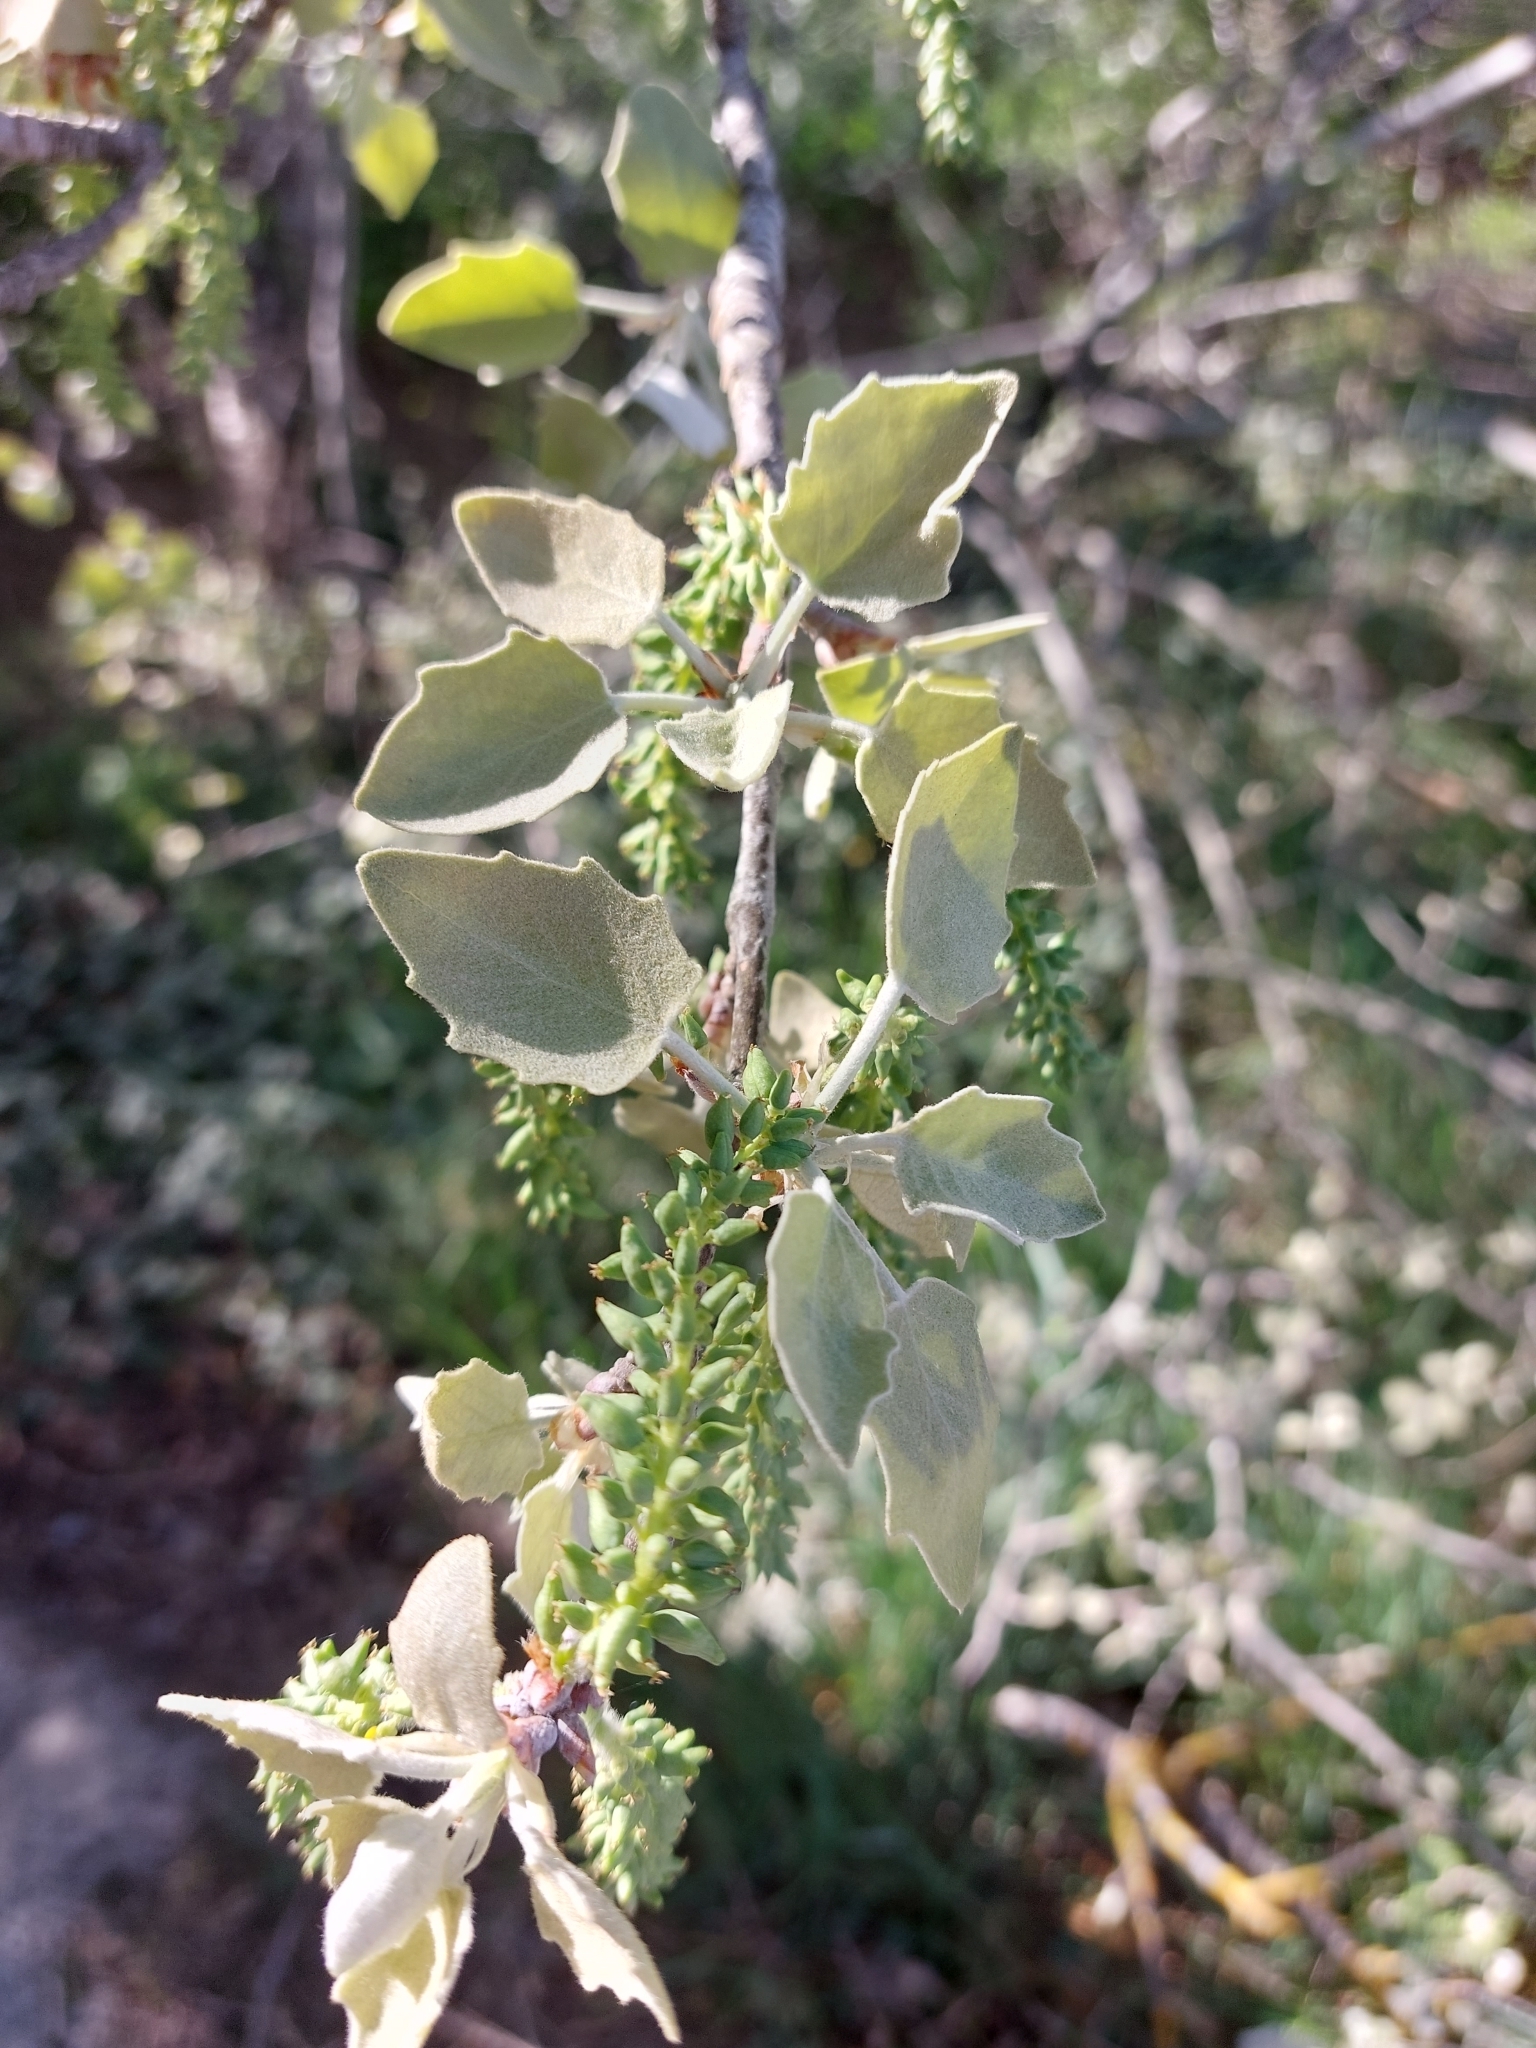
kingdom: Plantae
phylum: Tracheophyta
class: Magnoliopsida
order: Malpighiales
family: Salicaceae
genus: Populus
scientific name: Populus alba
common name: White poplar
